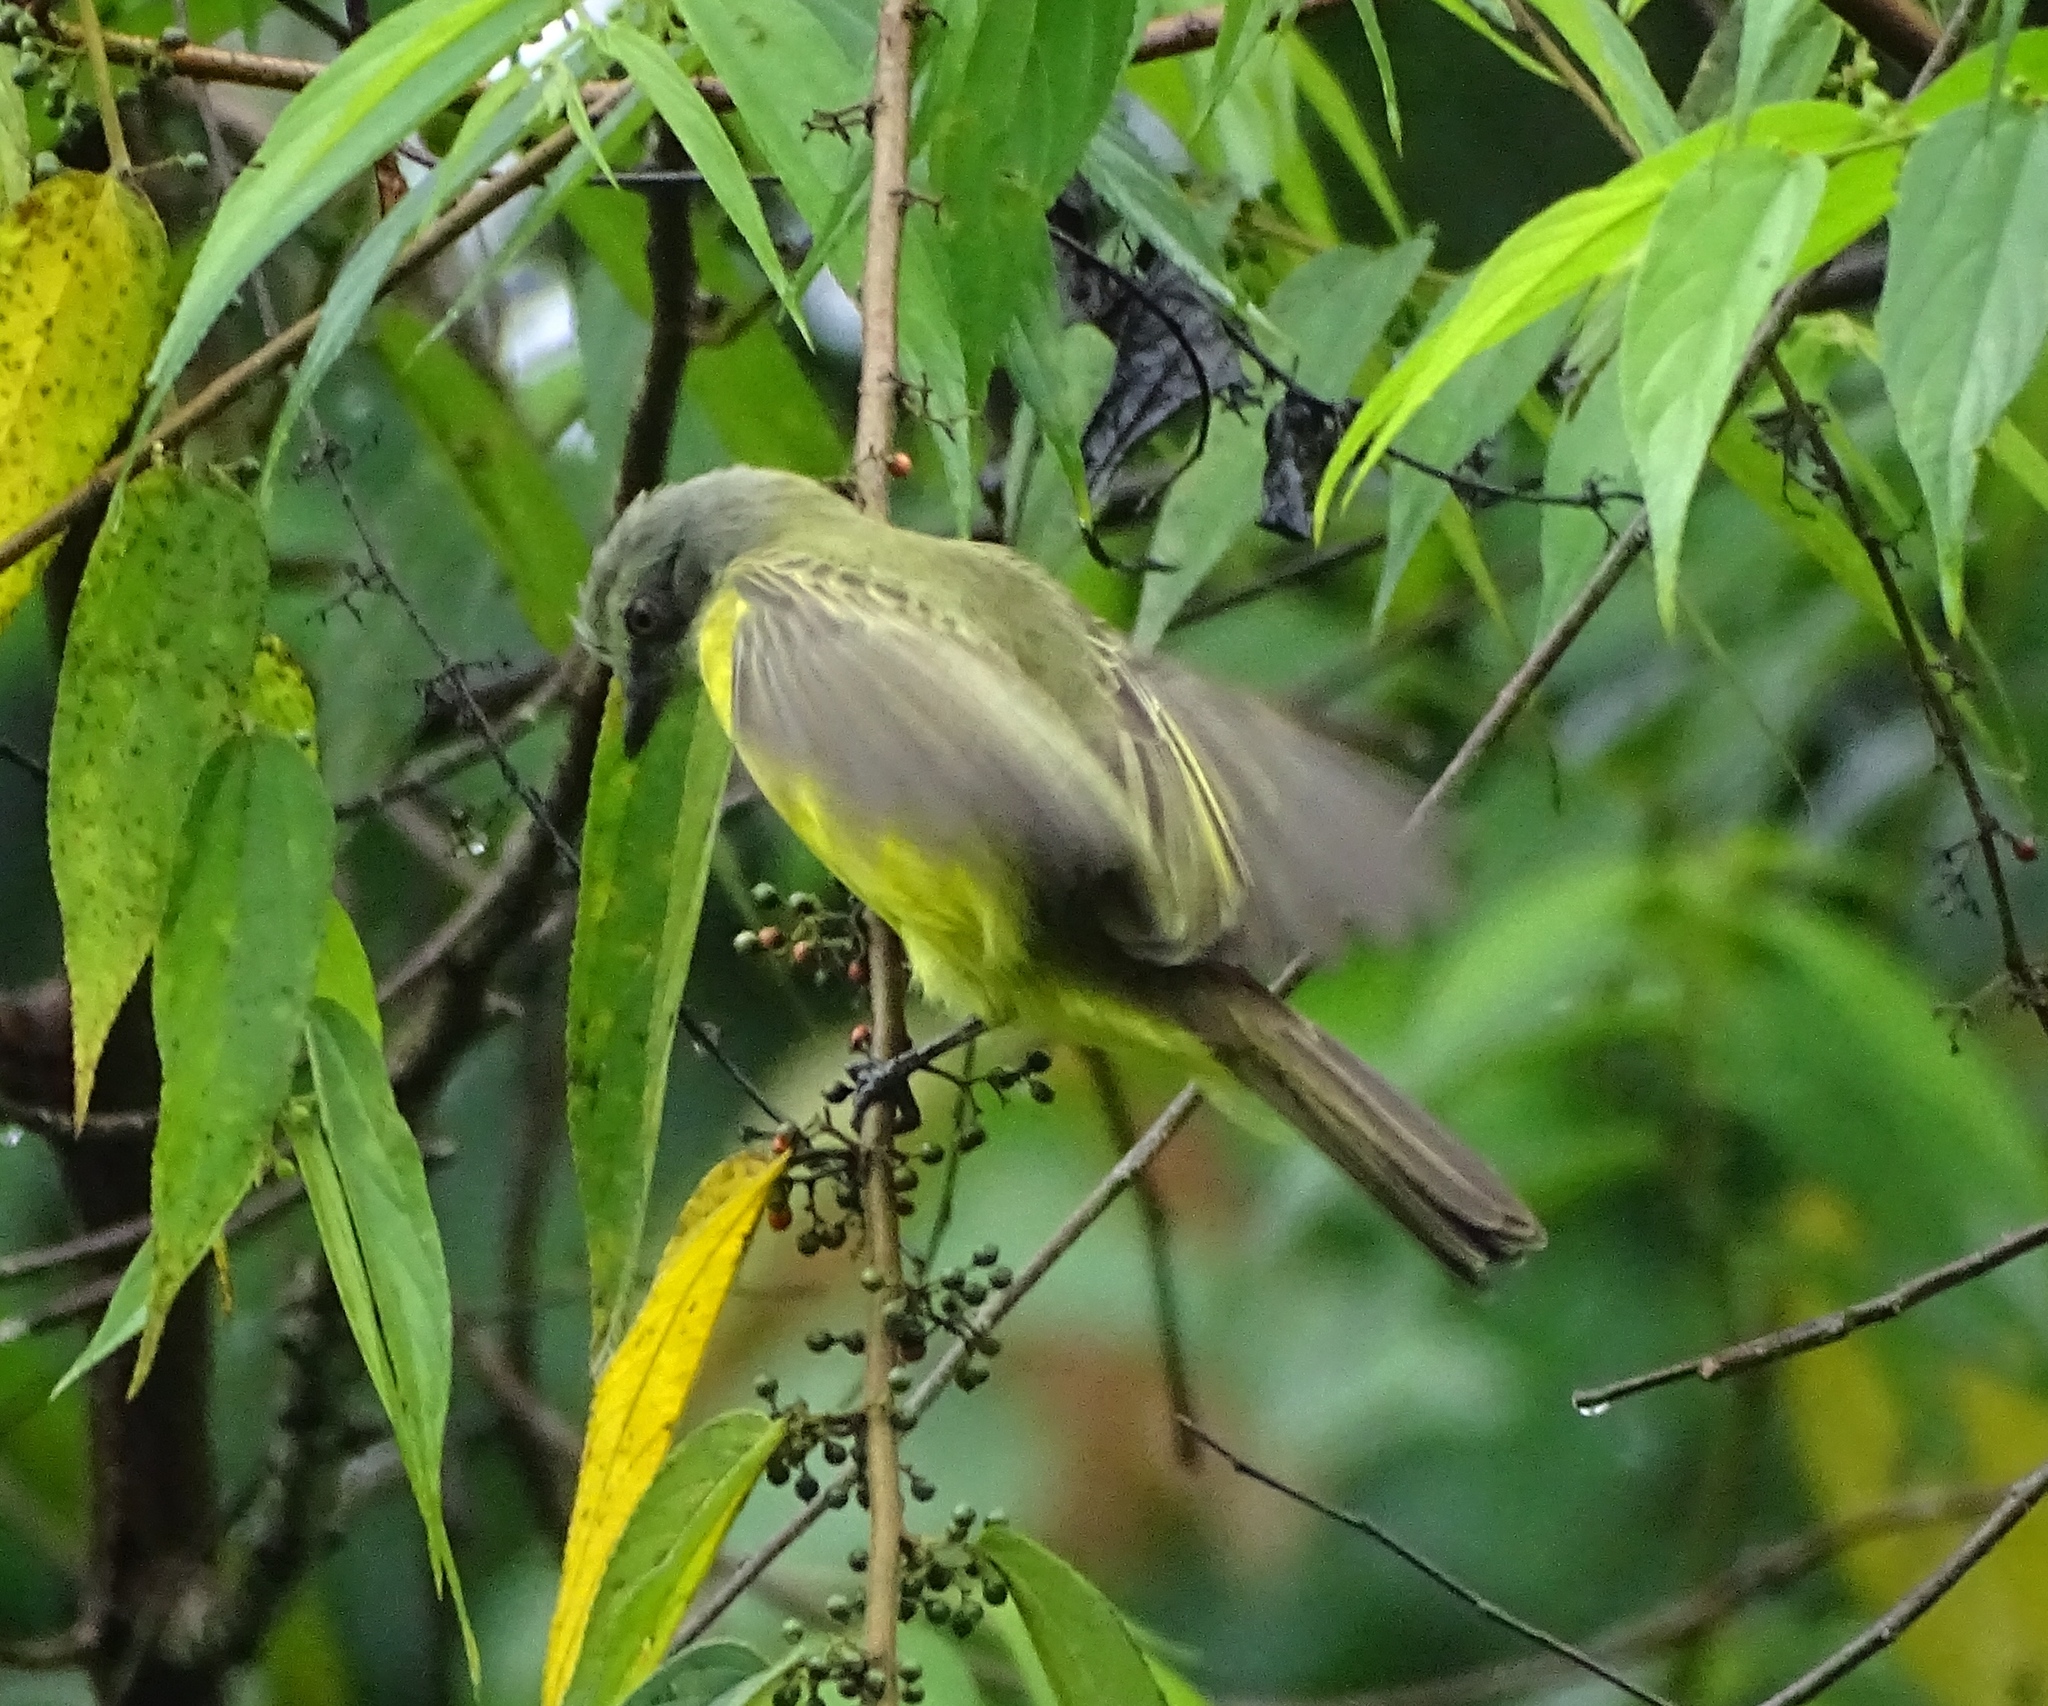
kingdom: Animalia
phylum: Chordata
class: Aves
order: Passeriformes
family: Tyrannidae
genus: Myiozetetes
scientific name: Myiozetetes granadensis
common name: Gray-capped flycatcher
